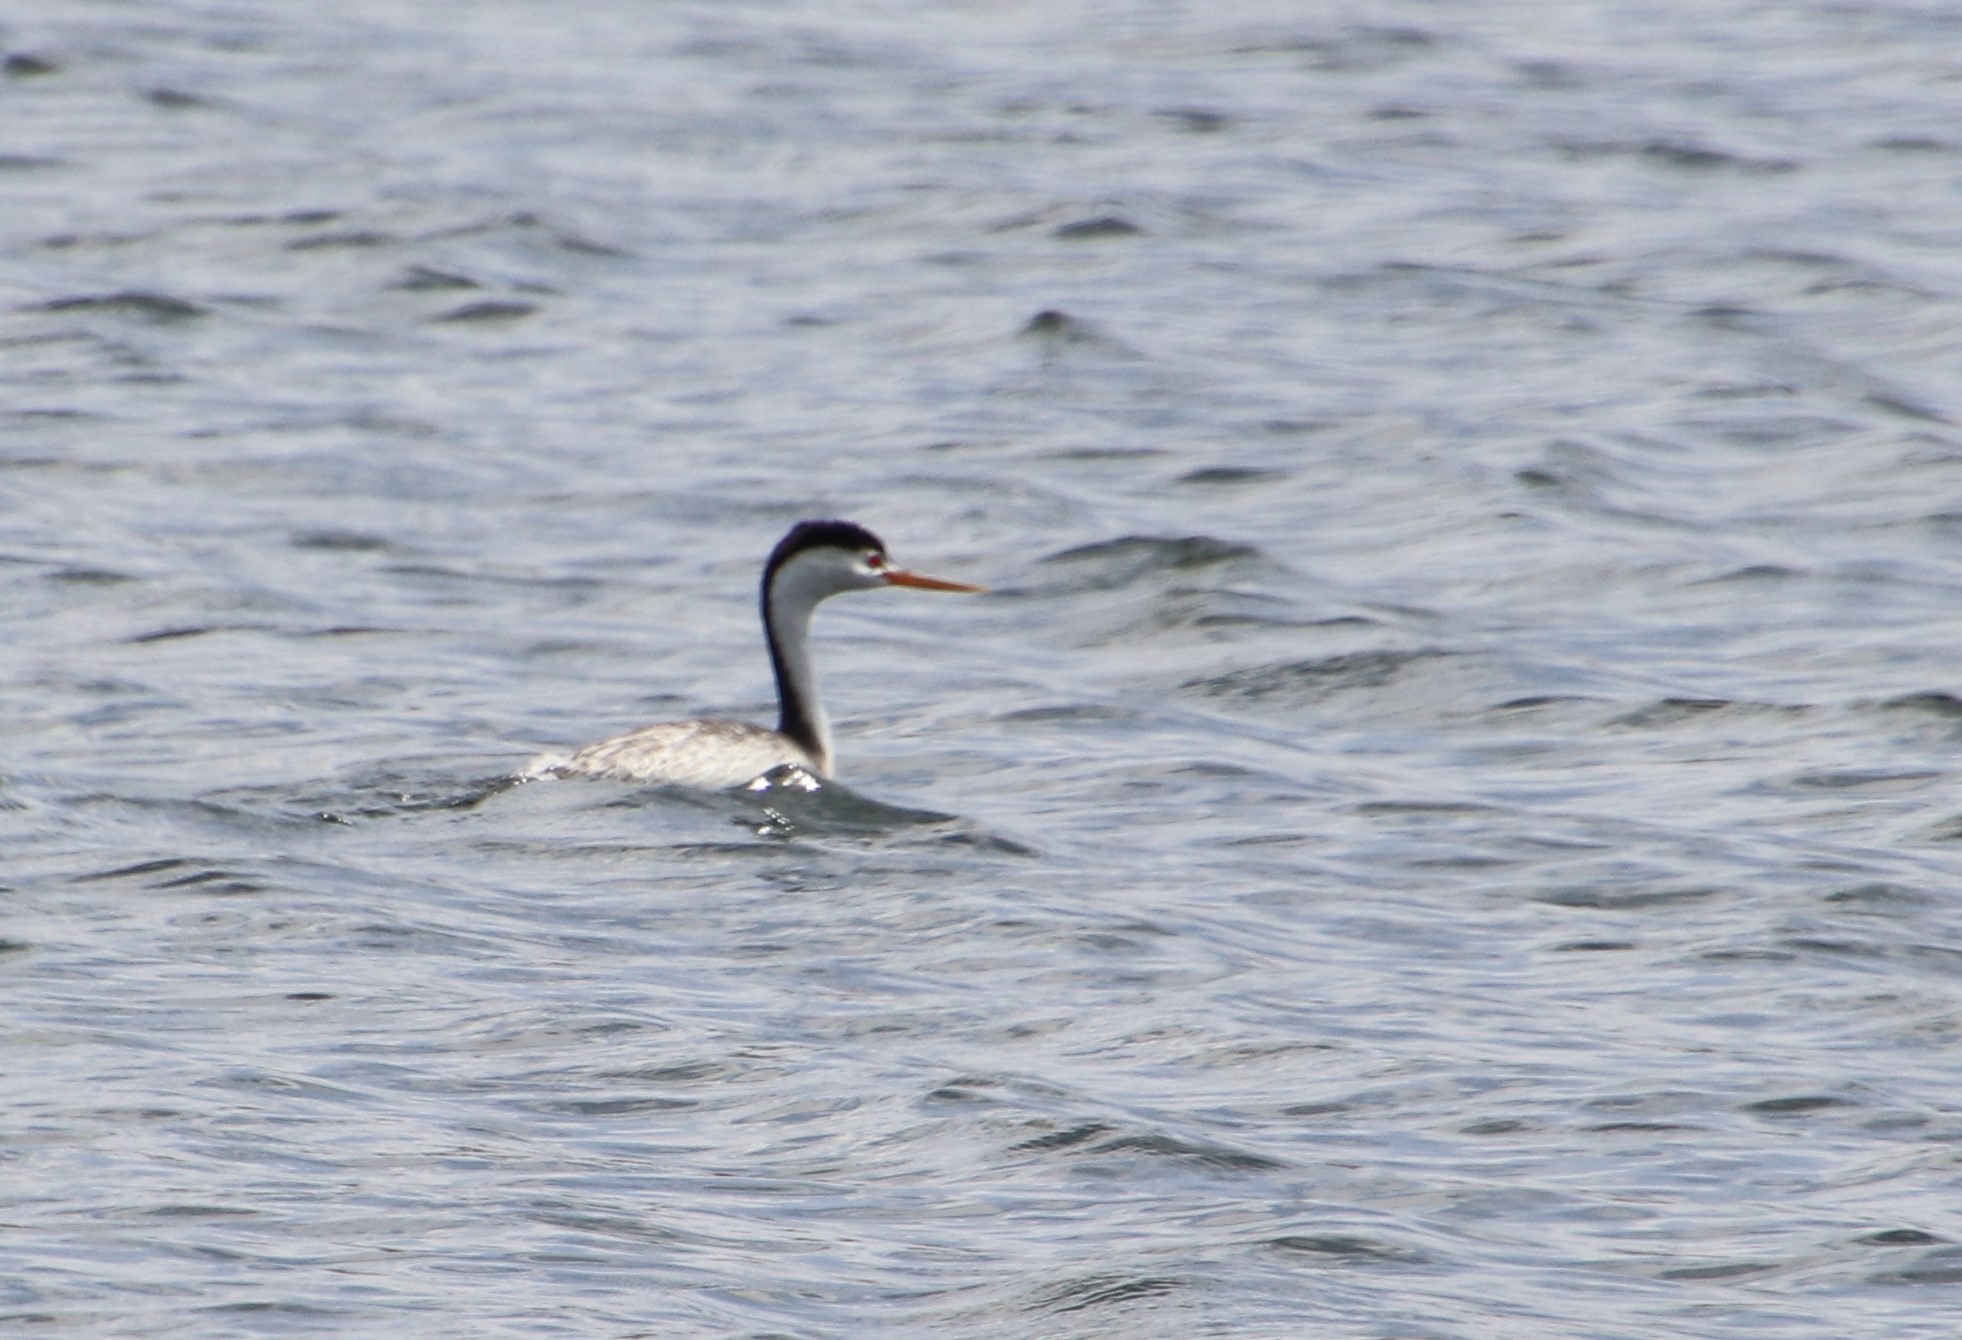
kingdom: Animalia
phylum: Chordata
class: Aves
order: Podicipediformes
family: Podicipedidae
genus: Aechmophorus
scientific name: Aechmophorus clarkii
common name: Clark's grebe
